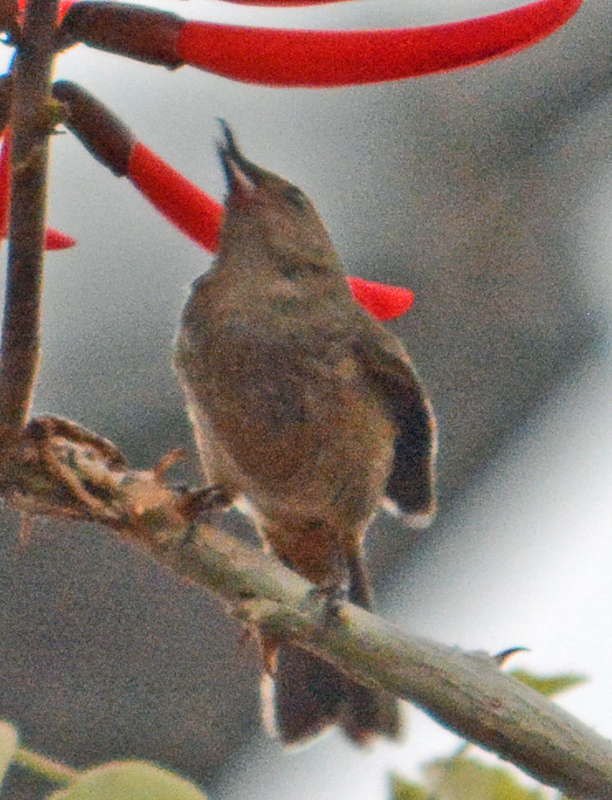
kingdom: Animalia
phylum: Chordata
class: Aves
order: Passeriformes
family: Thraupidae
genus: Diglossa
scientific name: Diglossa baritula
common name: Cinnamon-bellied flowerpiercer
